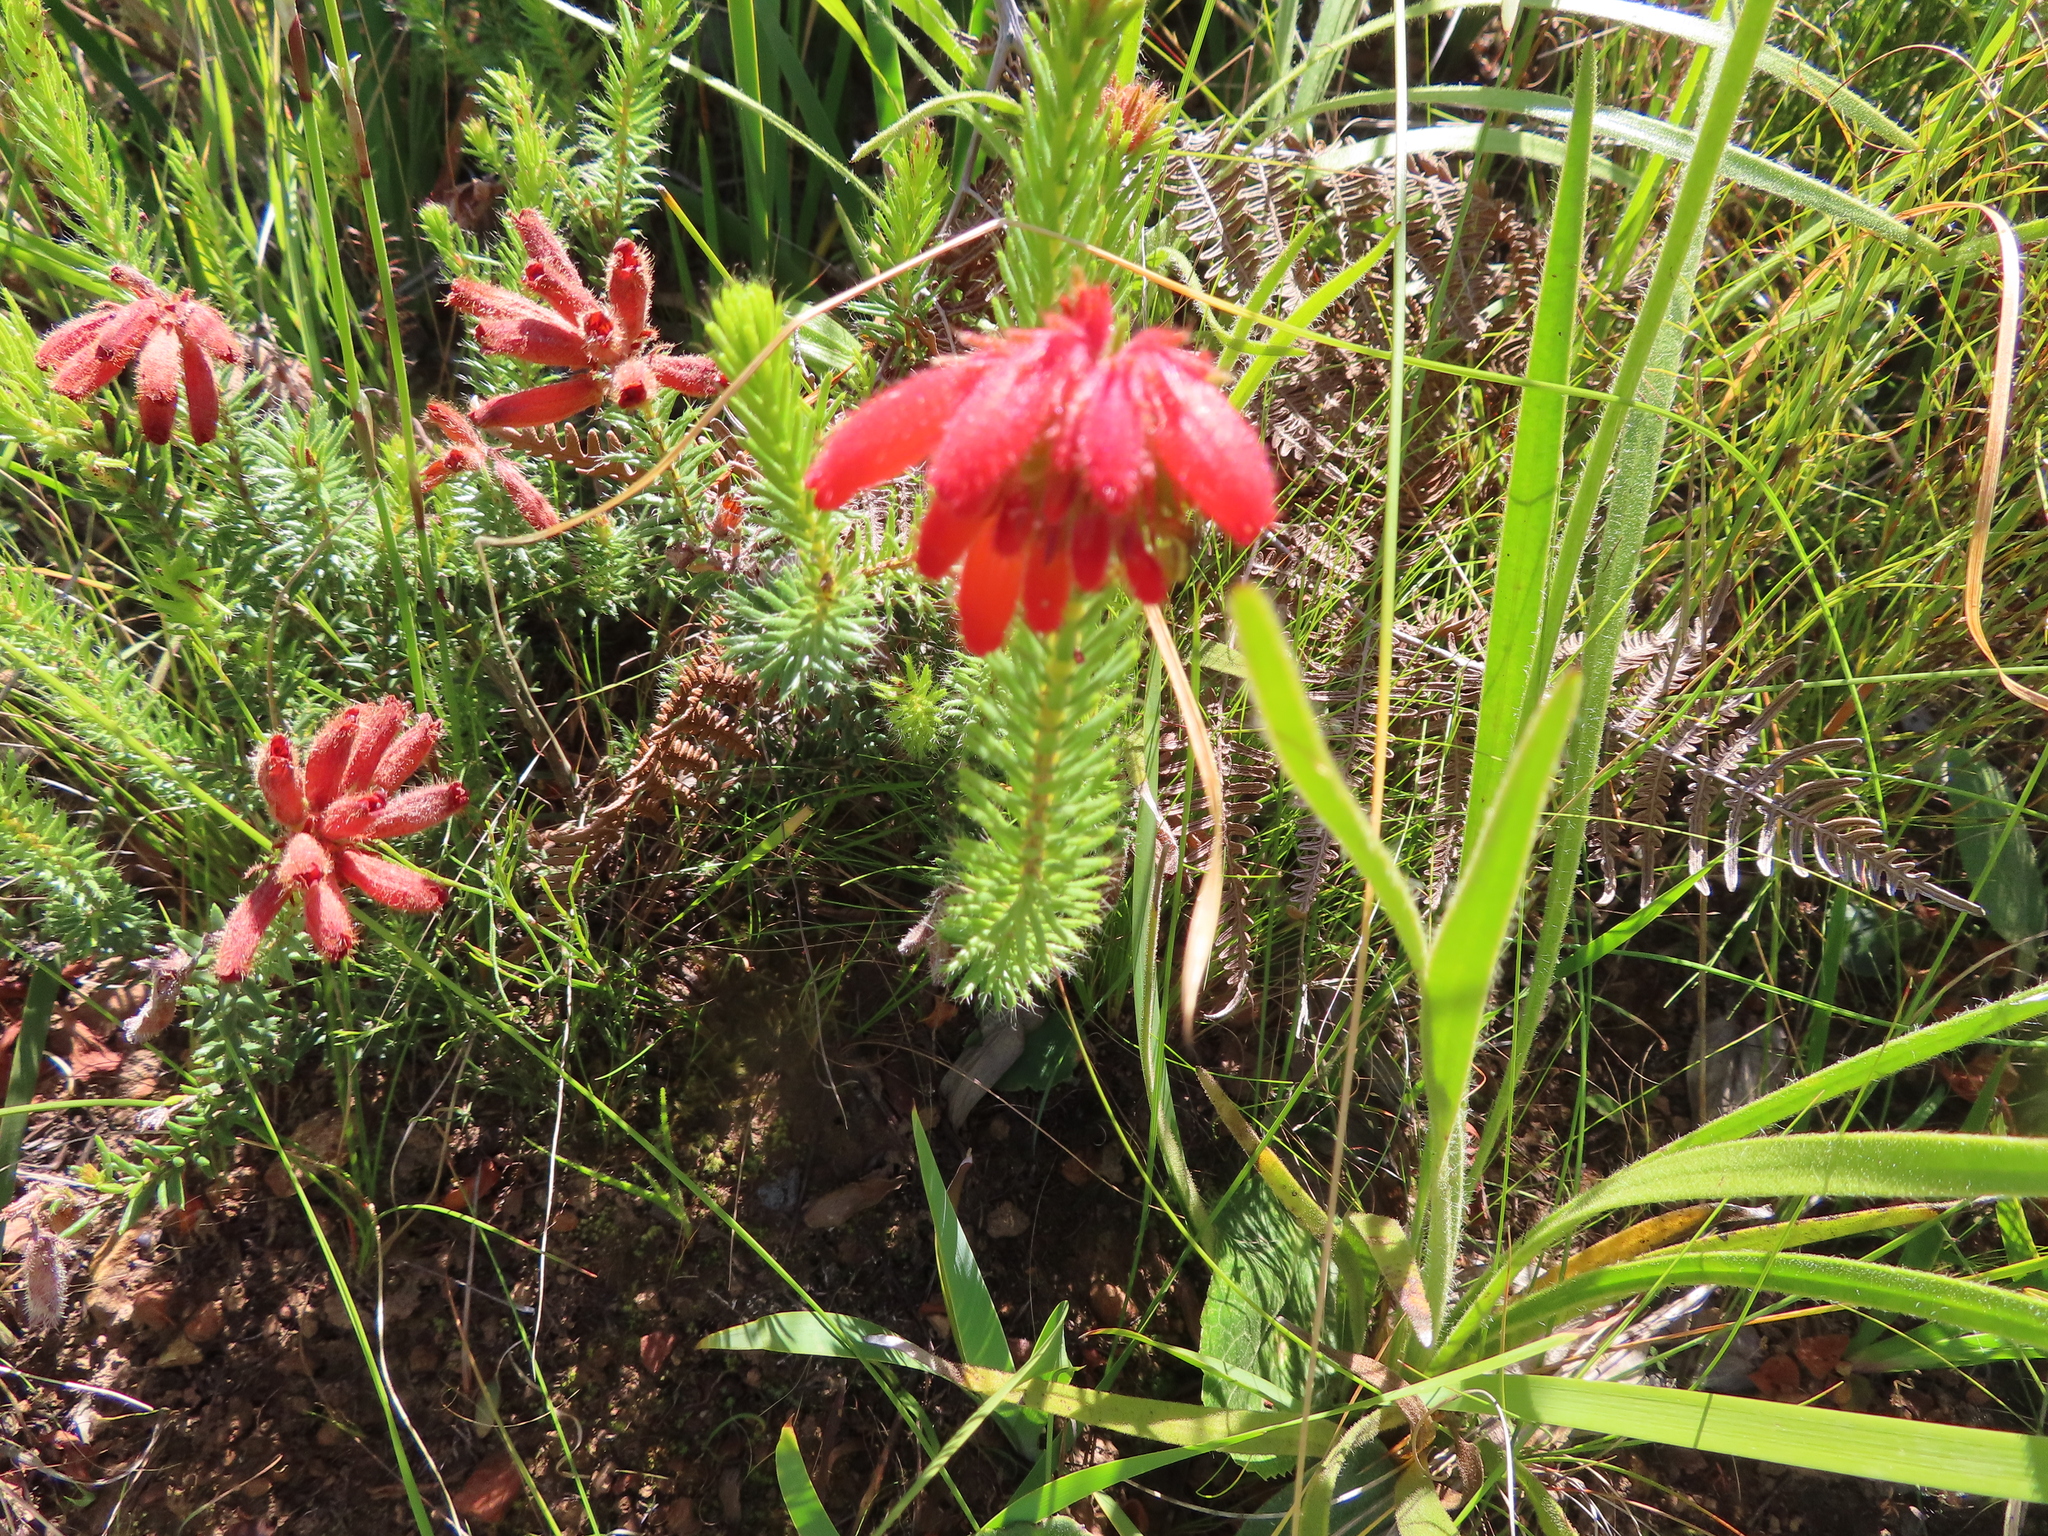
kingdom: Plantae
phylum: Tracheophyta
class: Magnoliopsida
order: Ericales
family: Ericaceae
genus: Erica
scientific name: Erica cerinthoides
